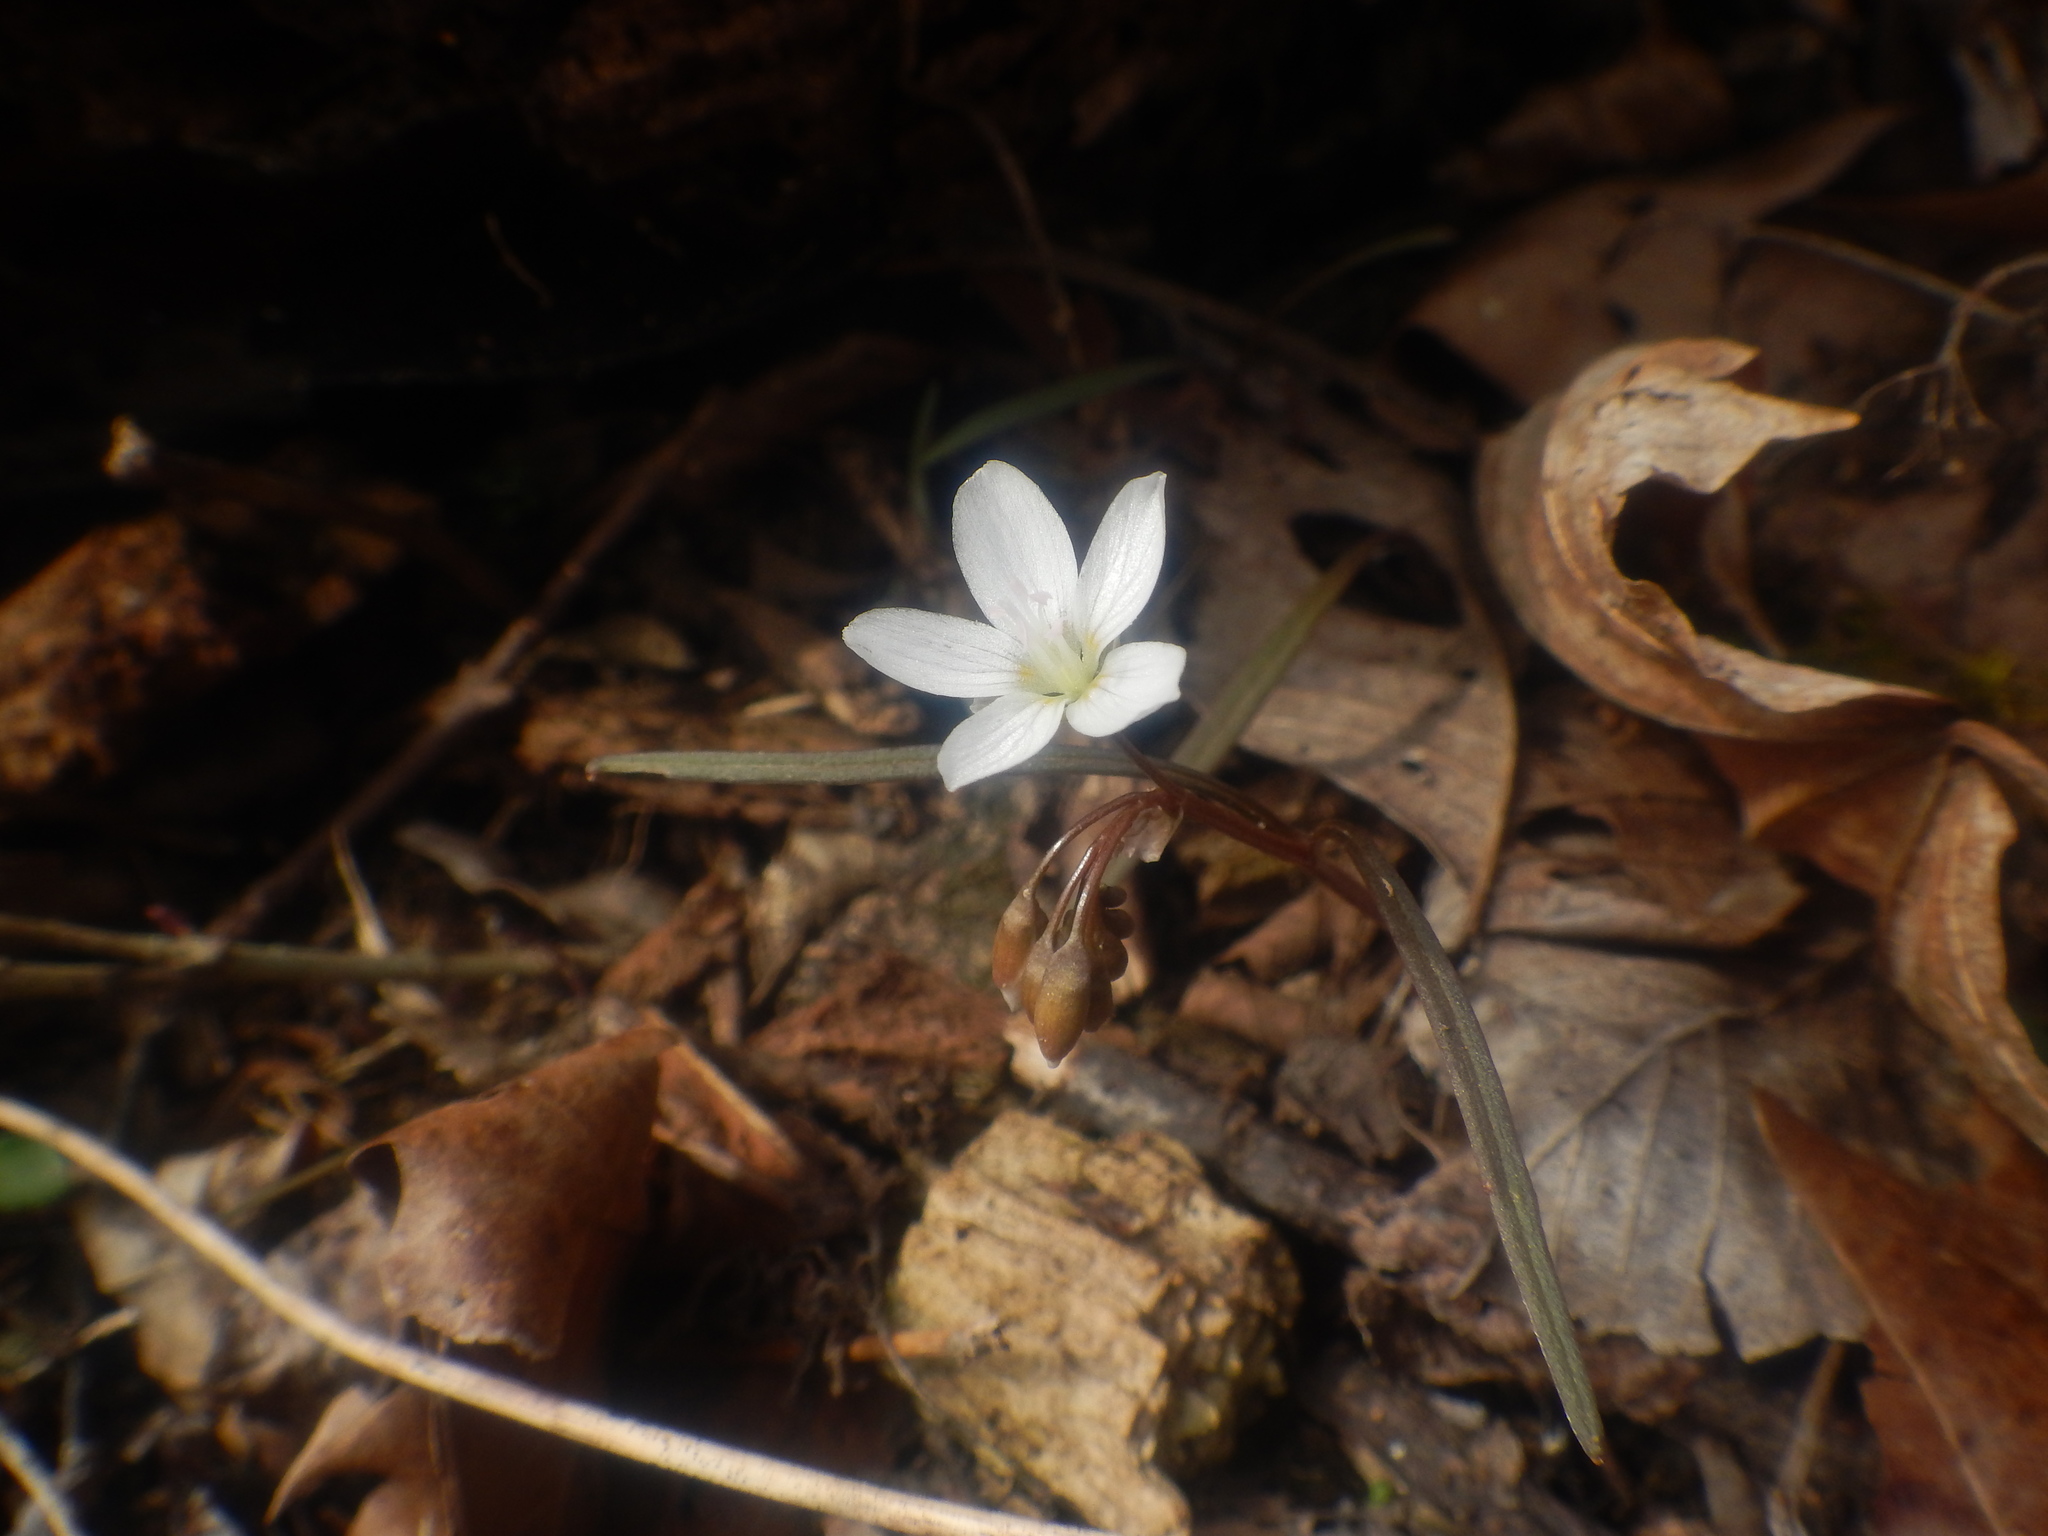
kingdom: Plantae
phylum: Tracheophyta
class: Magnoliopsida
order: Caryophyllales
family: Montiaceae
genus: Claytonia
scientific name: Claytonia virginica
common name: Virginia springbeauty
